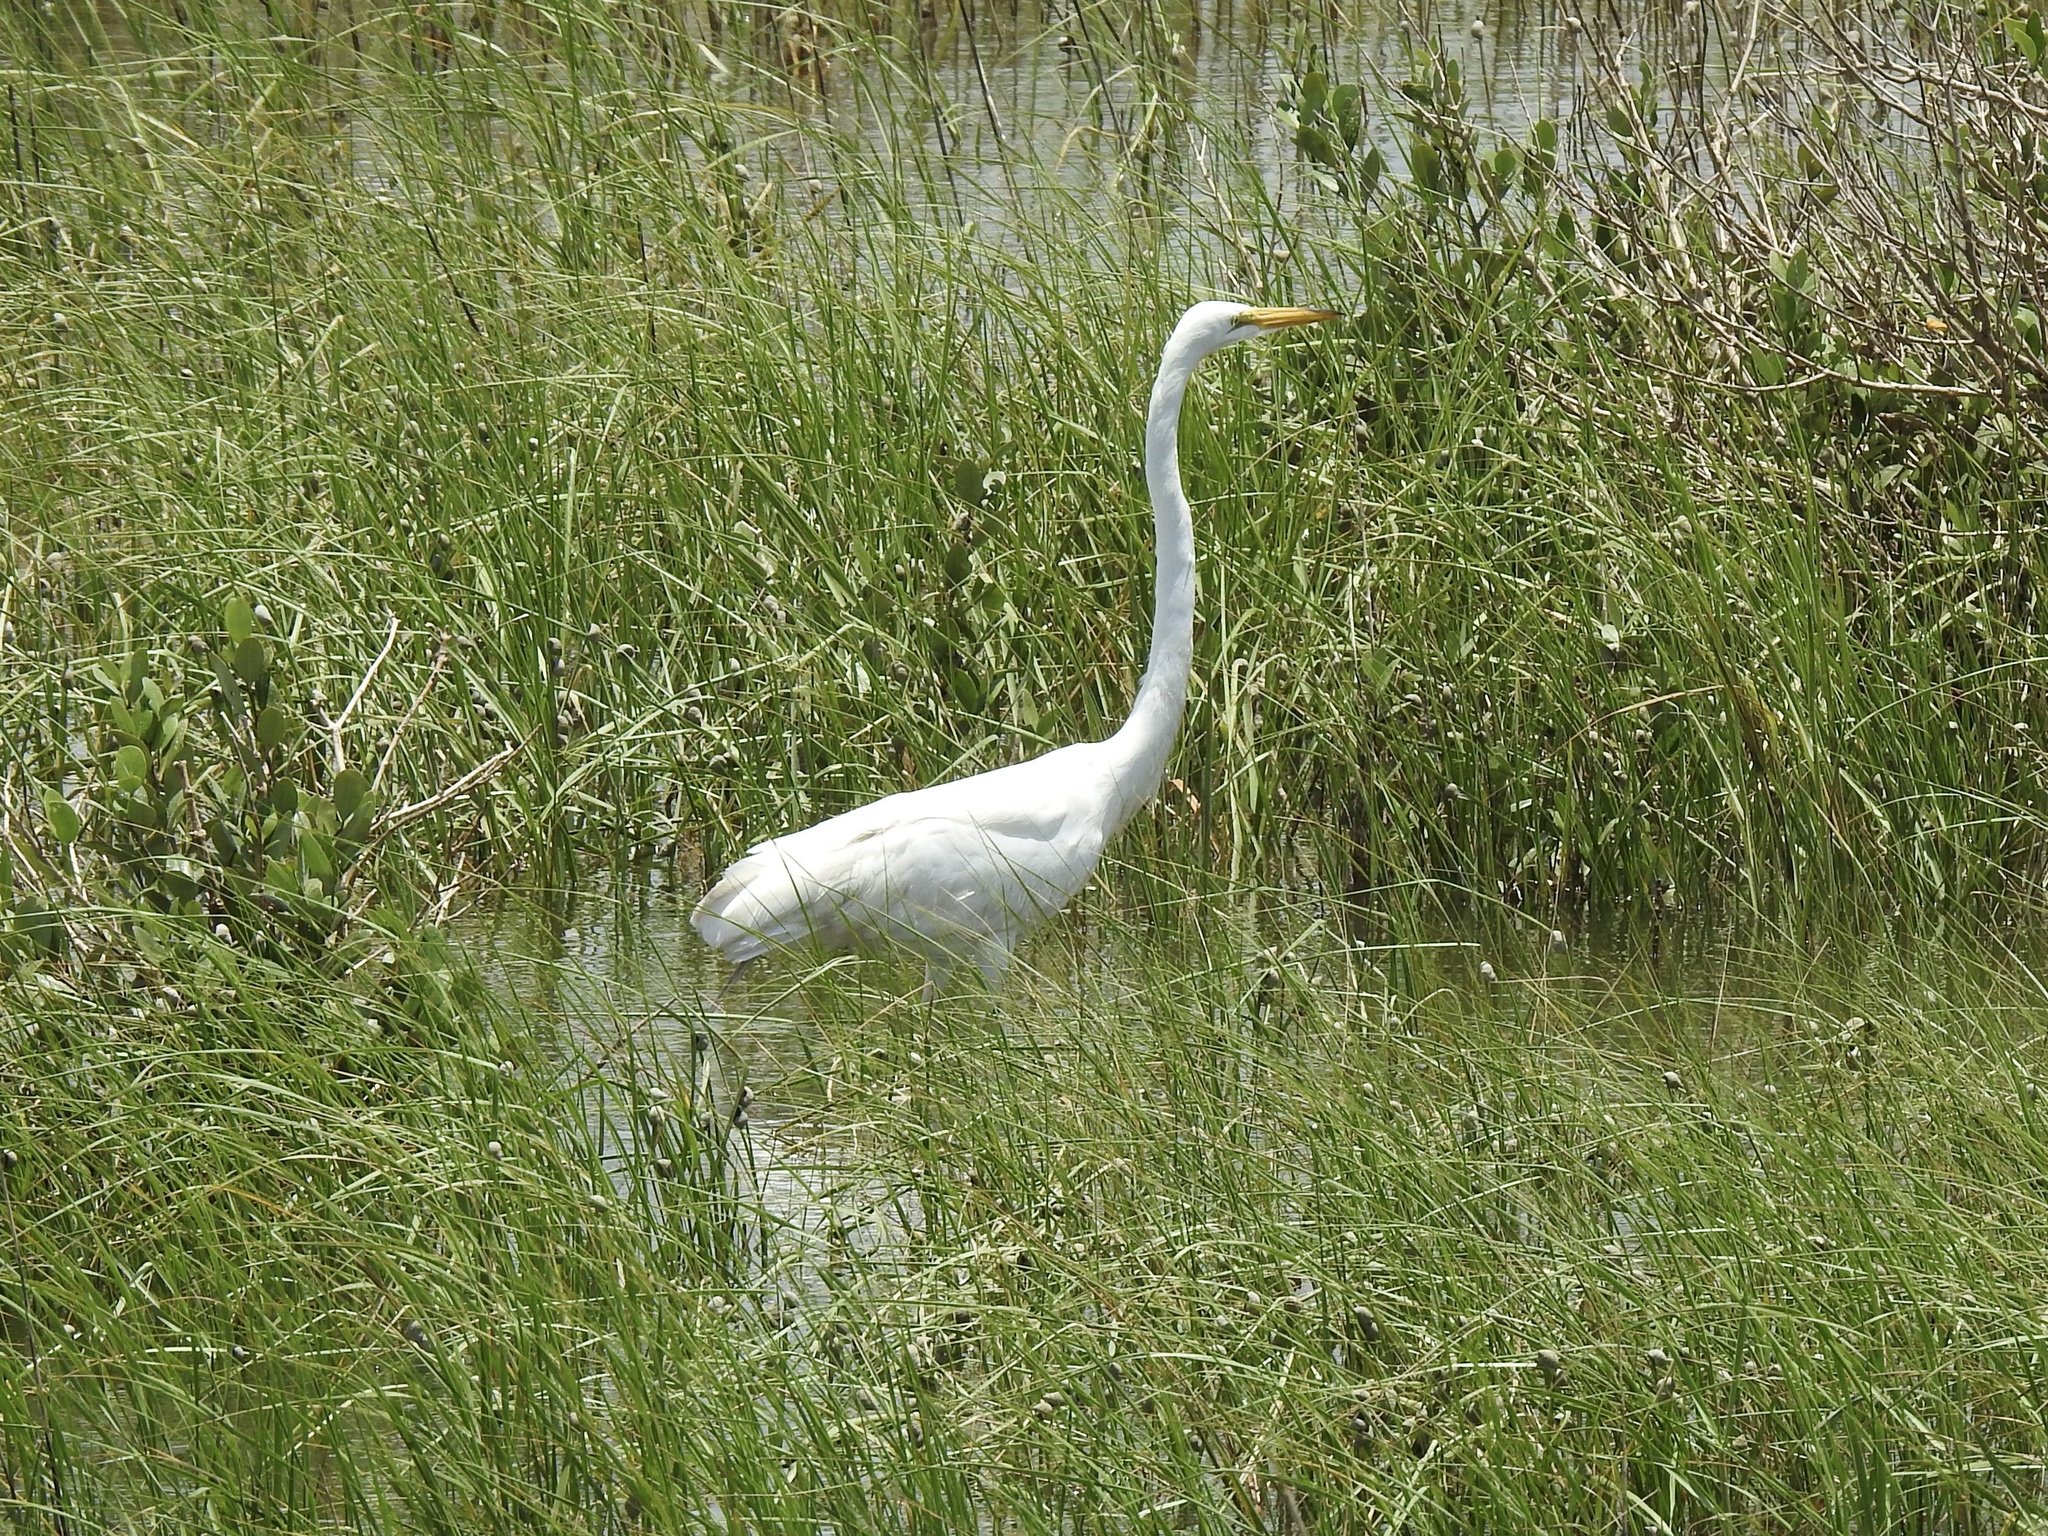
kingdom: Animalia
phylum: Chordata
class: Aves
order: Pelecaniformes
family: Ardeidae
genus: Ardea
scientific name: Ardea alba
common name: Great egret
